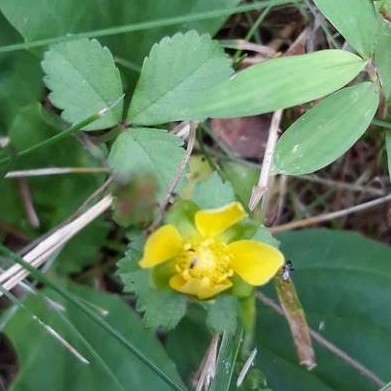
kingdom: Plantae
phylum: Tracheophyta
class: Magnoliopsida
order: Rosales
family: Rosaceae
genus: Potentilla
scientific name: Potentilla indica
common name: Yellow-flowered strawberry
